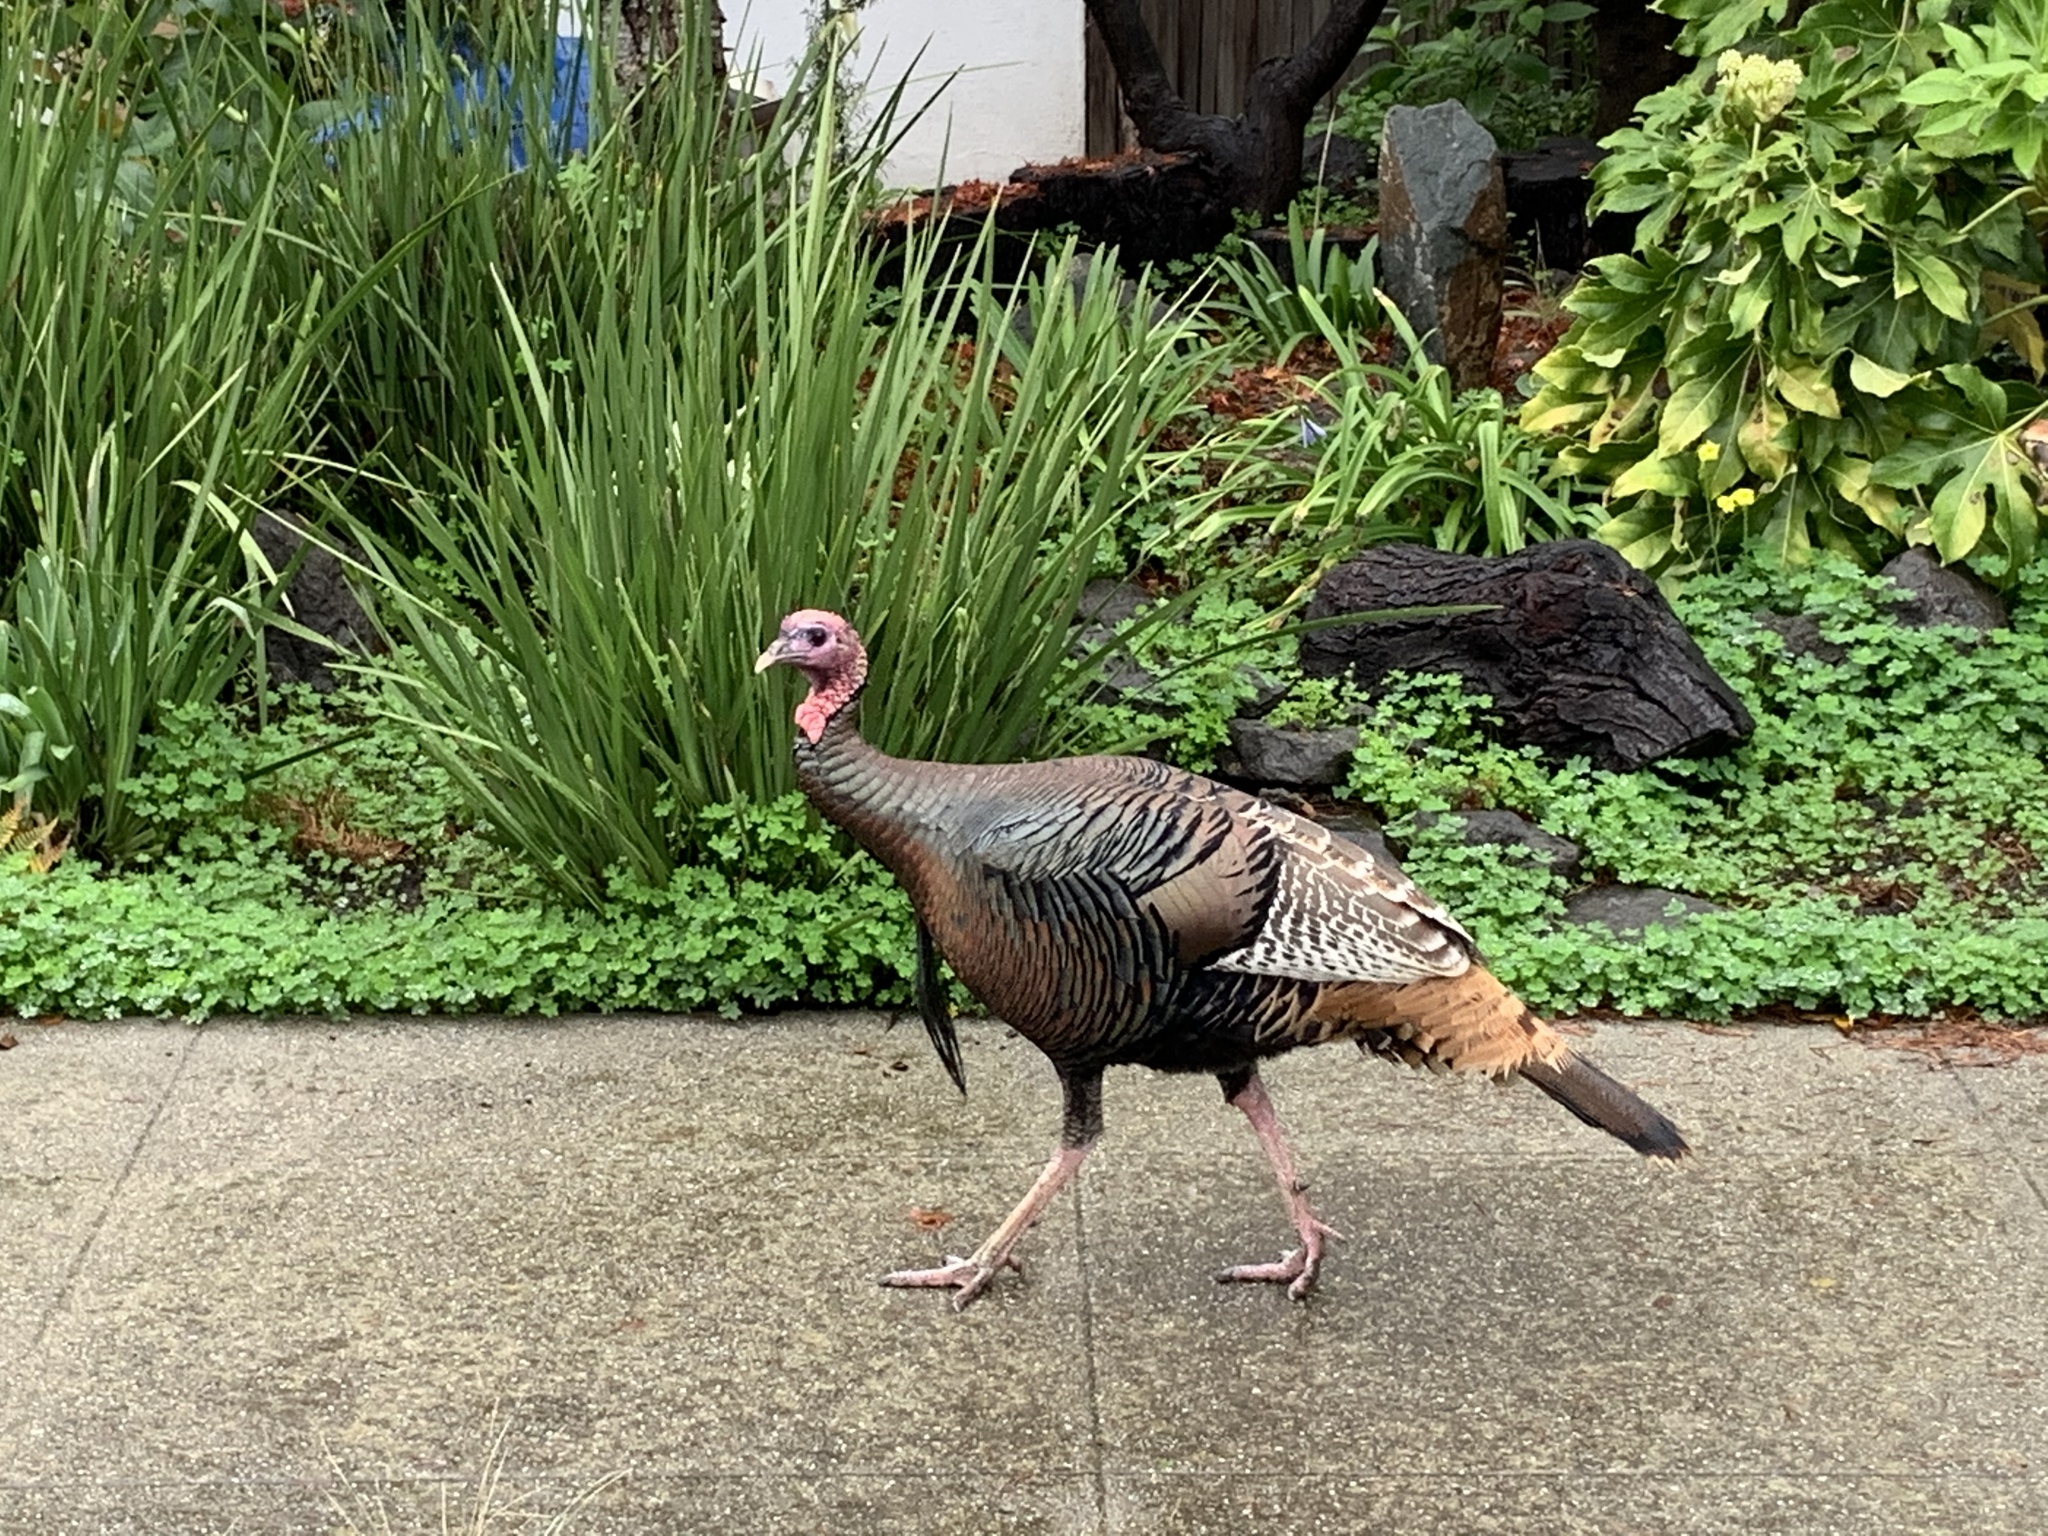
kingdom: Animalia
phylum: Chordata
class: Aves
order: Galliformes
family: Phasianidae
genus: Meleagris
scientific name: Meleagris gallopavo
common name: Wild turkey
